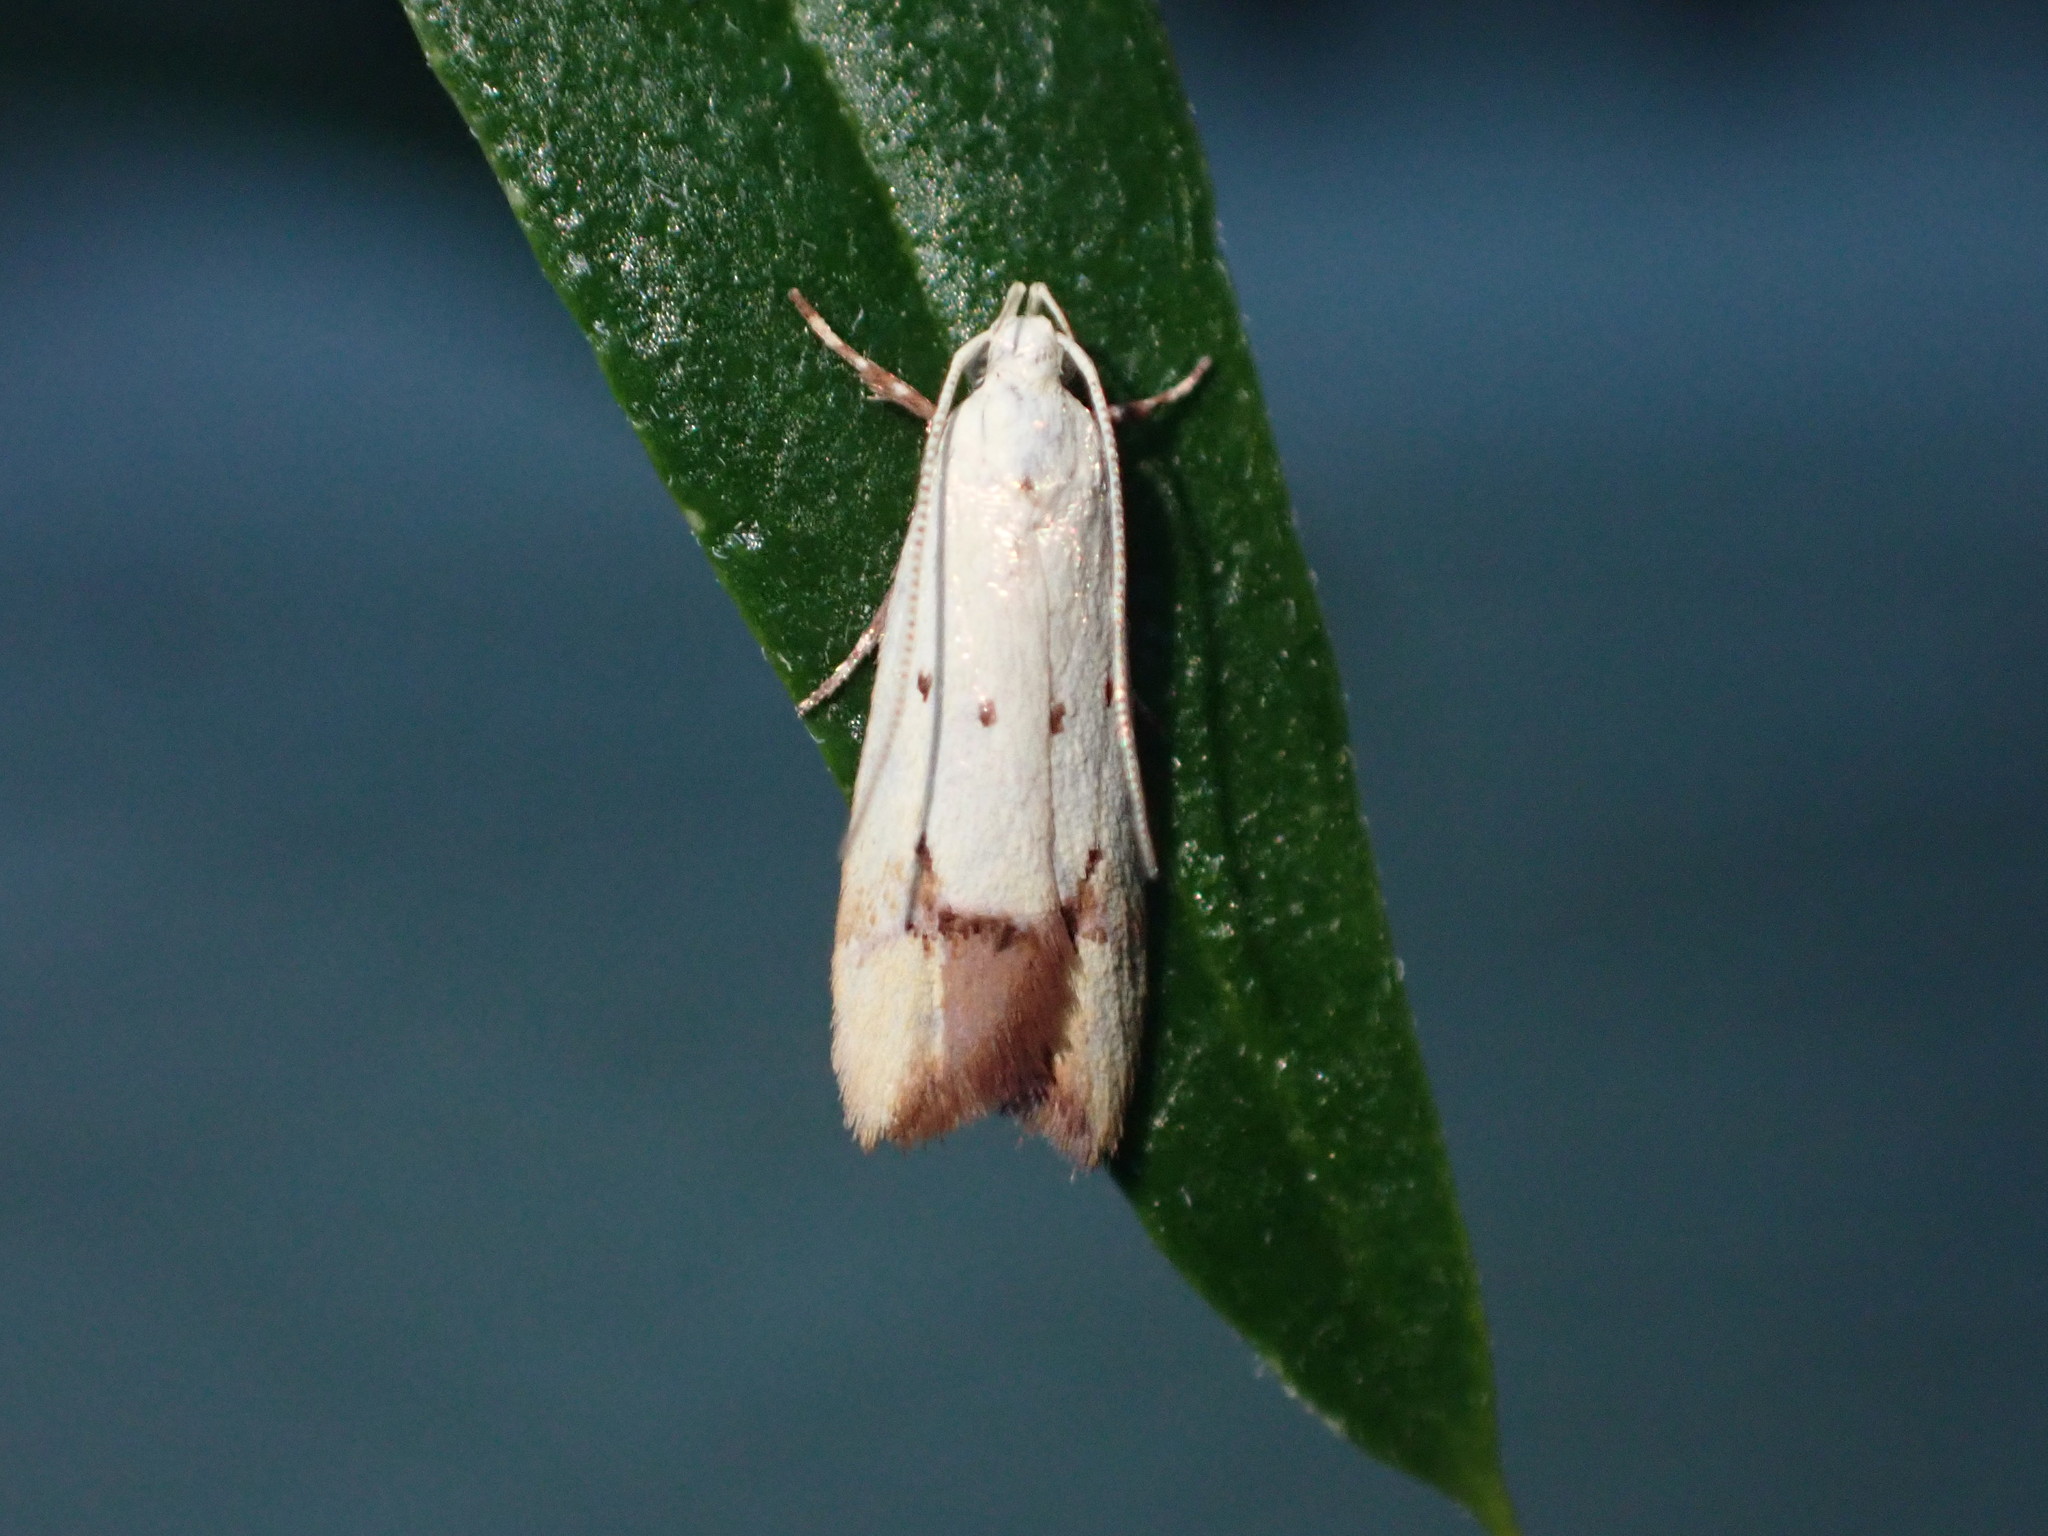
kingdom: Animalia
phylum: Arthropoda
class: Insecta
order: Lepidoptera
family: Oecophoridae
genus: Gymnobathra
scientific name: Gymnobathra flavidella
